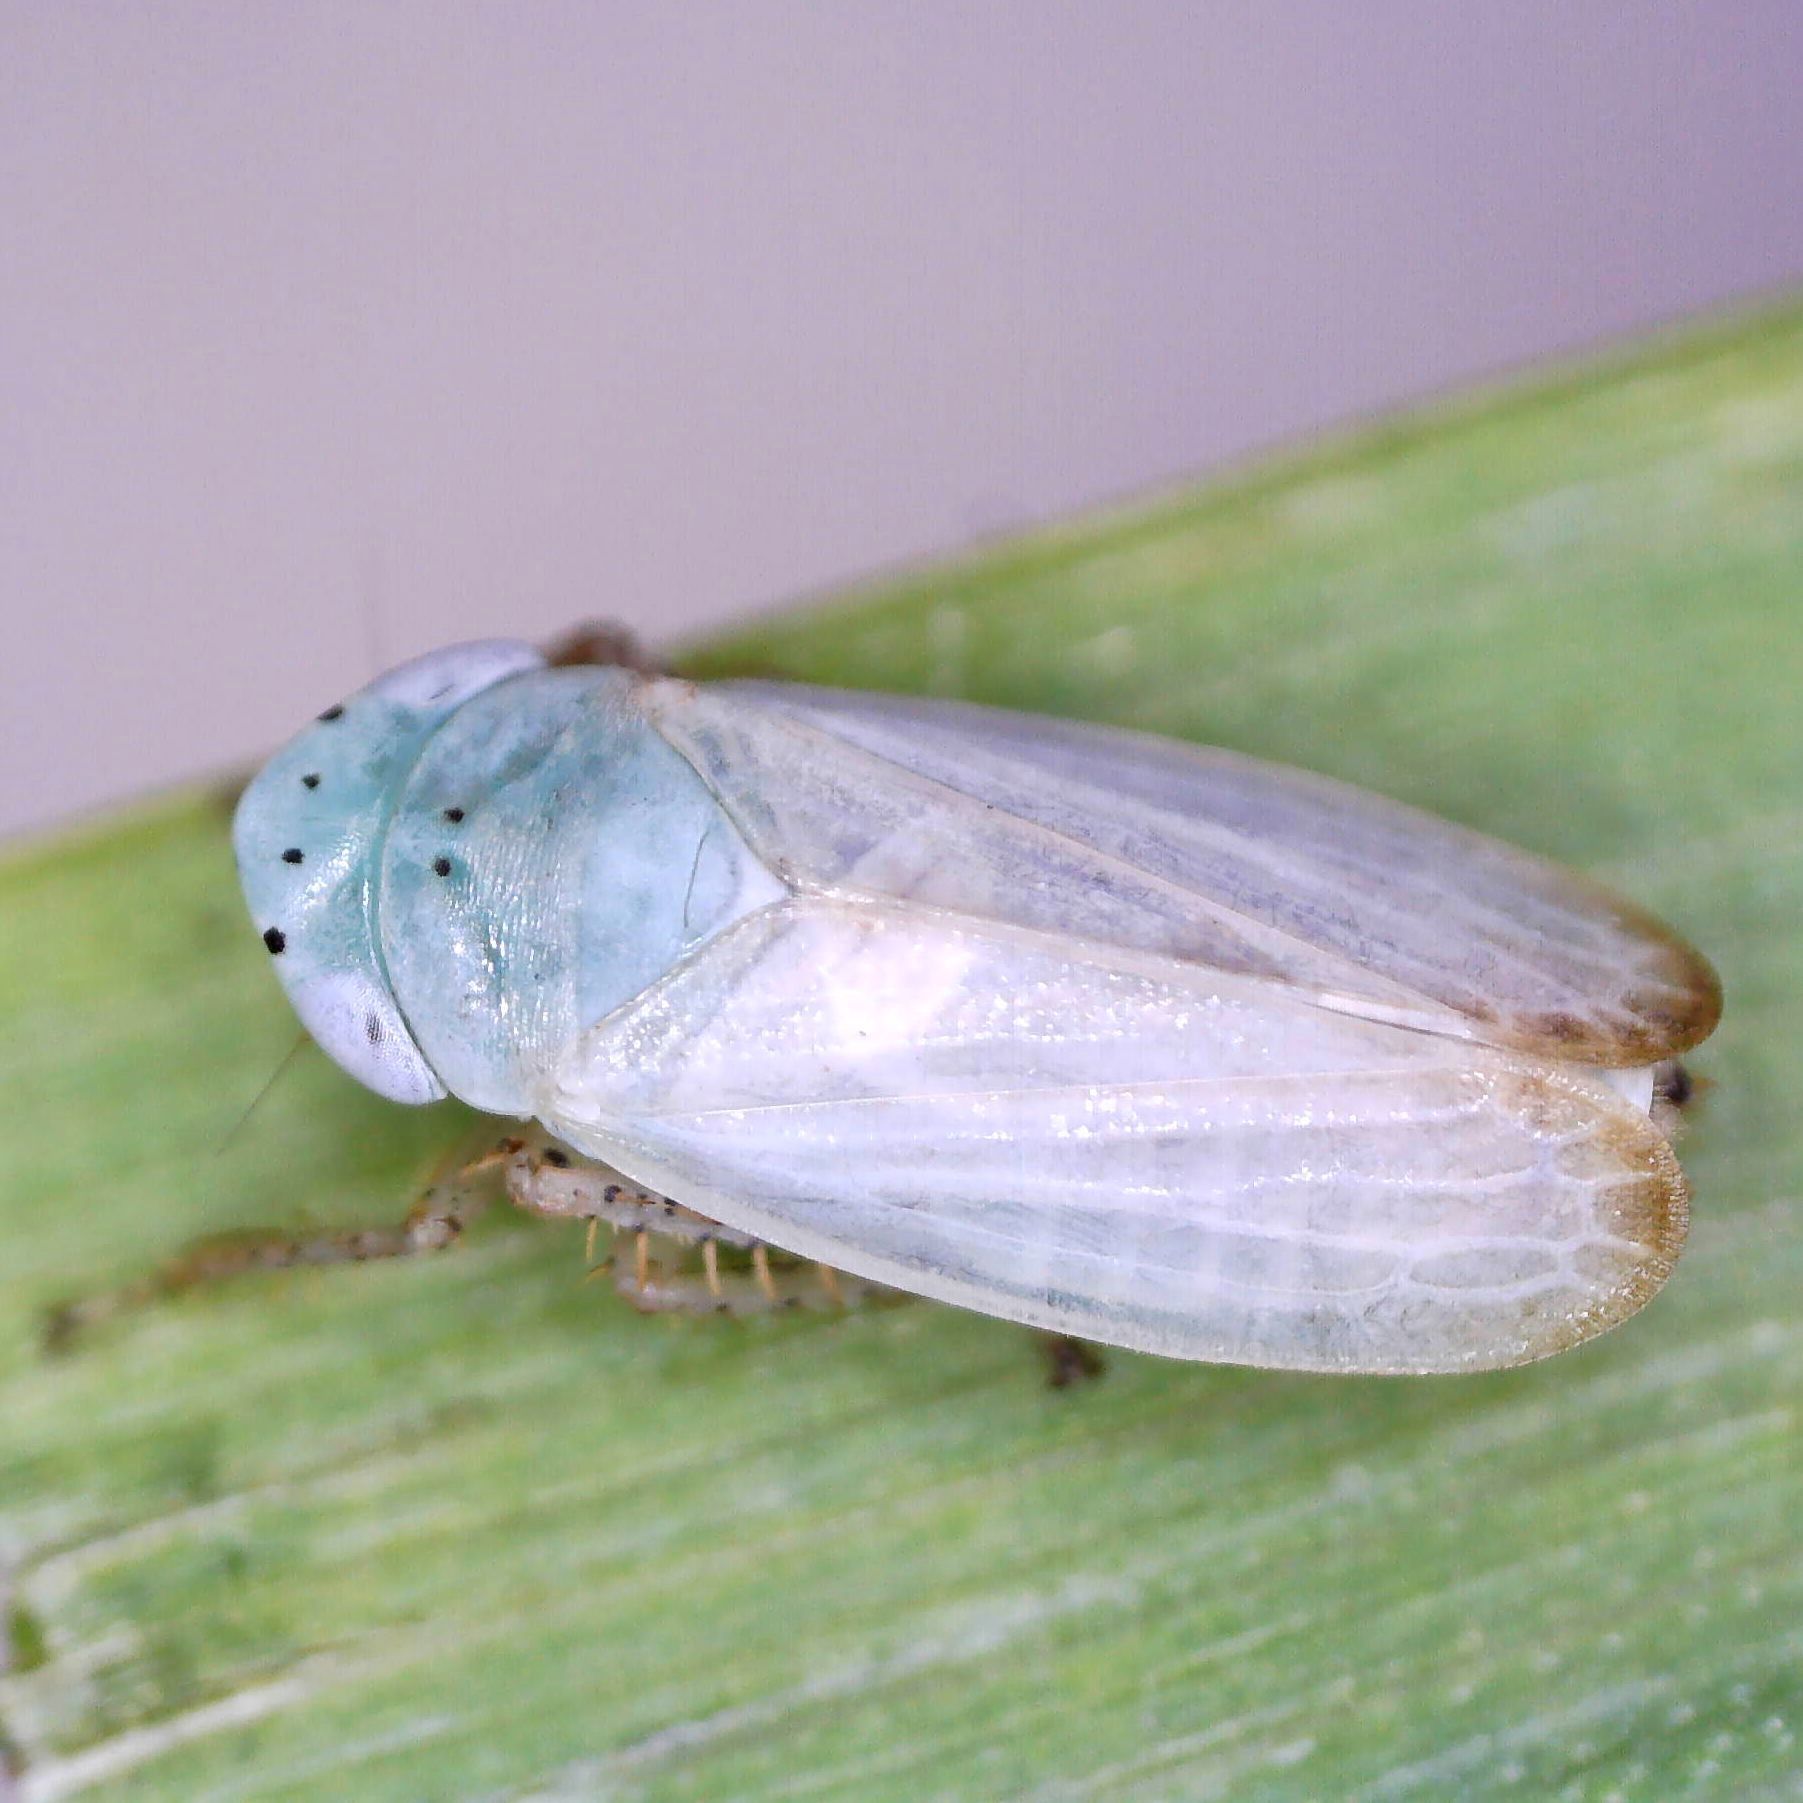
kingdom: Animalia
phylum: Arthropoda
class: Insecta
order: Hemiptera
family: Cicadellidae
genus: Graphocraerus
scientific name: Graphocraerus ventralis
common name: Leafhopper
